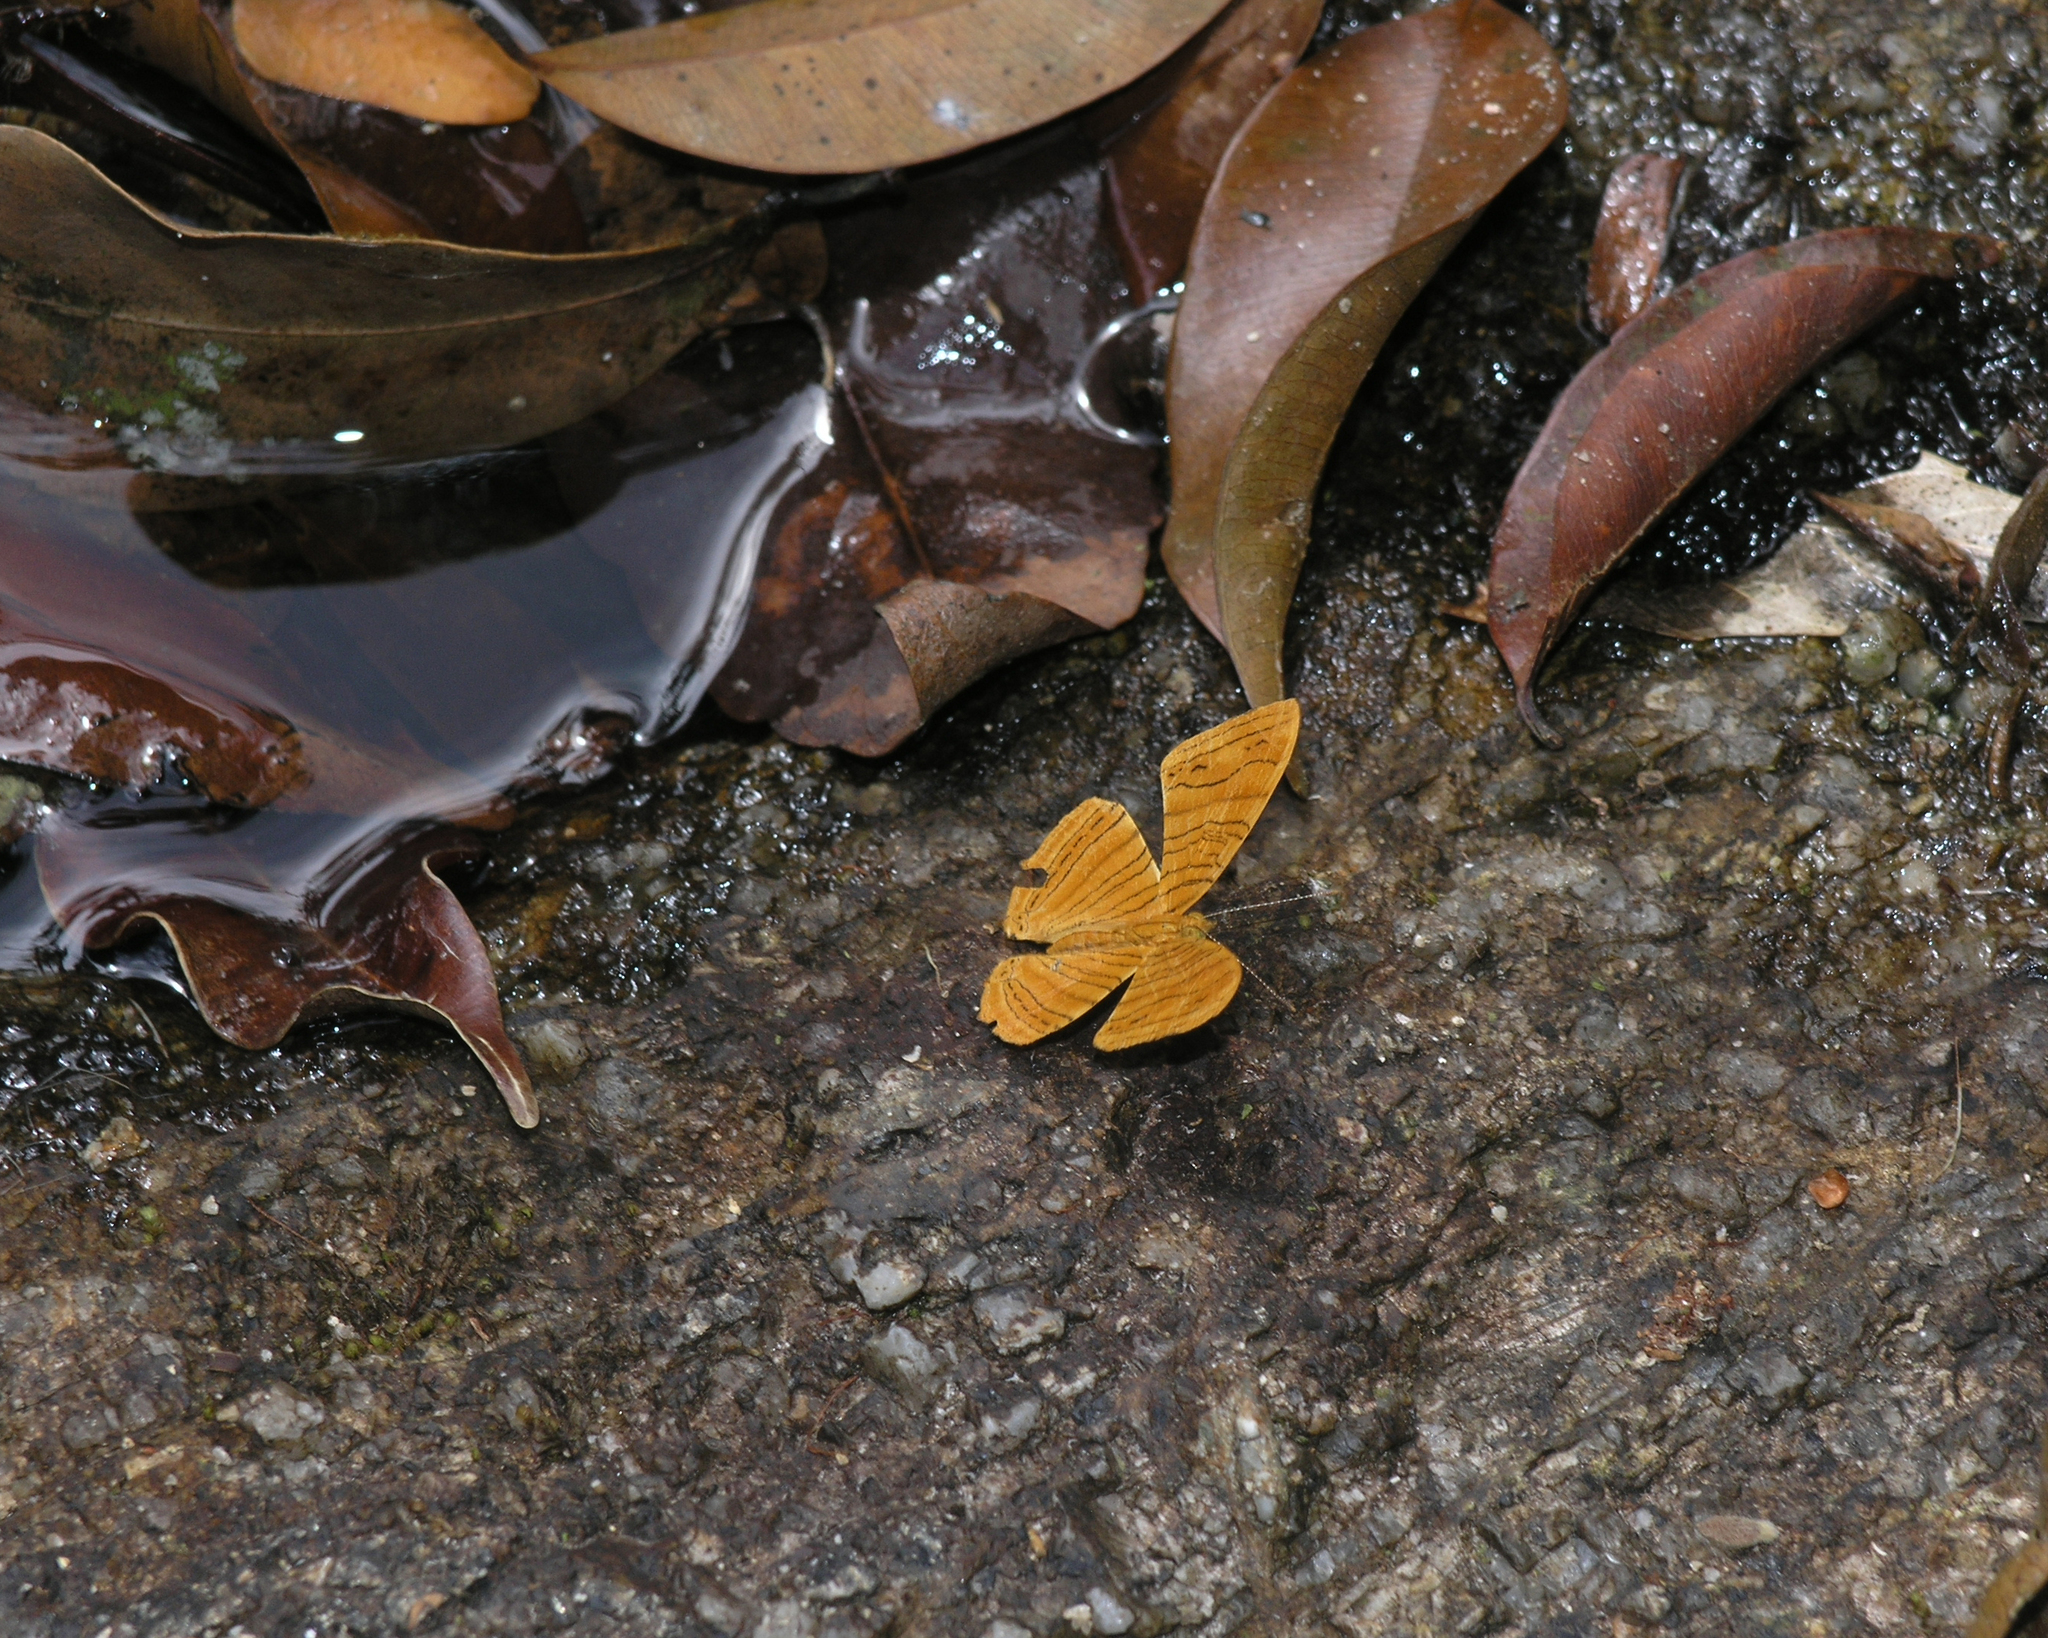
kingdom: Animalia
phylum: Arthropoda
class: Insecta
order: Lepidoptera
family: Nymphalidae
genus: Chersonesia
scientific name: Chersonesia intermedia
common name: Intermediate maplet
